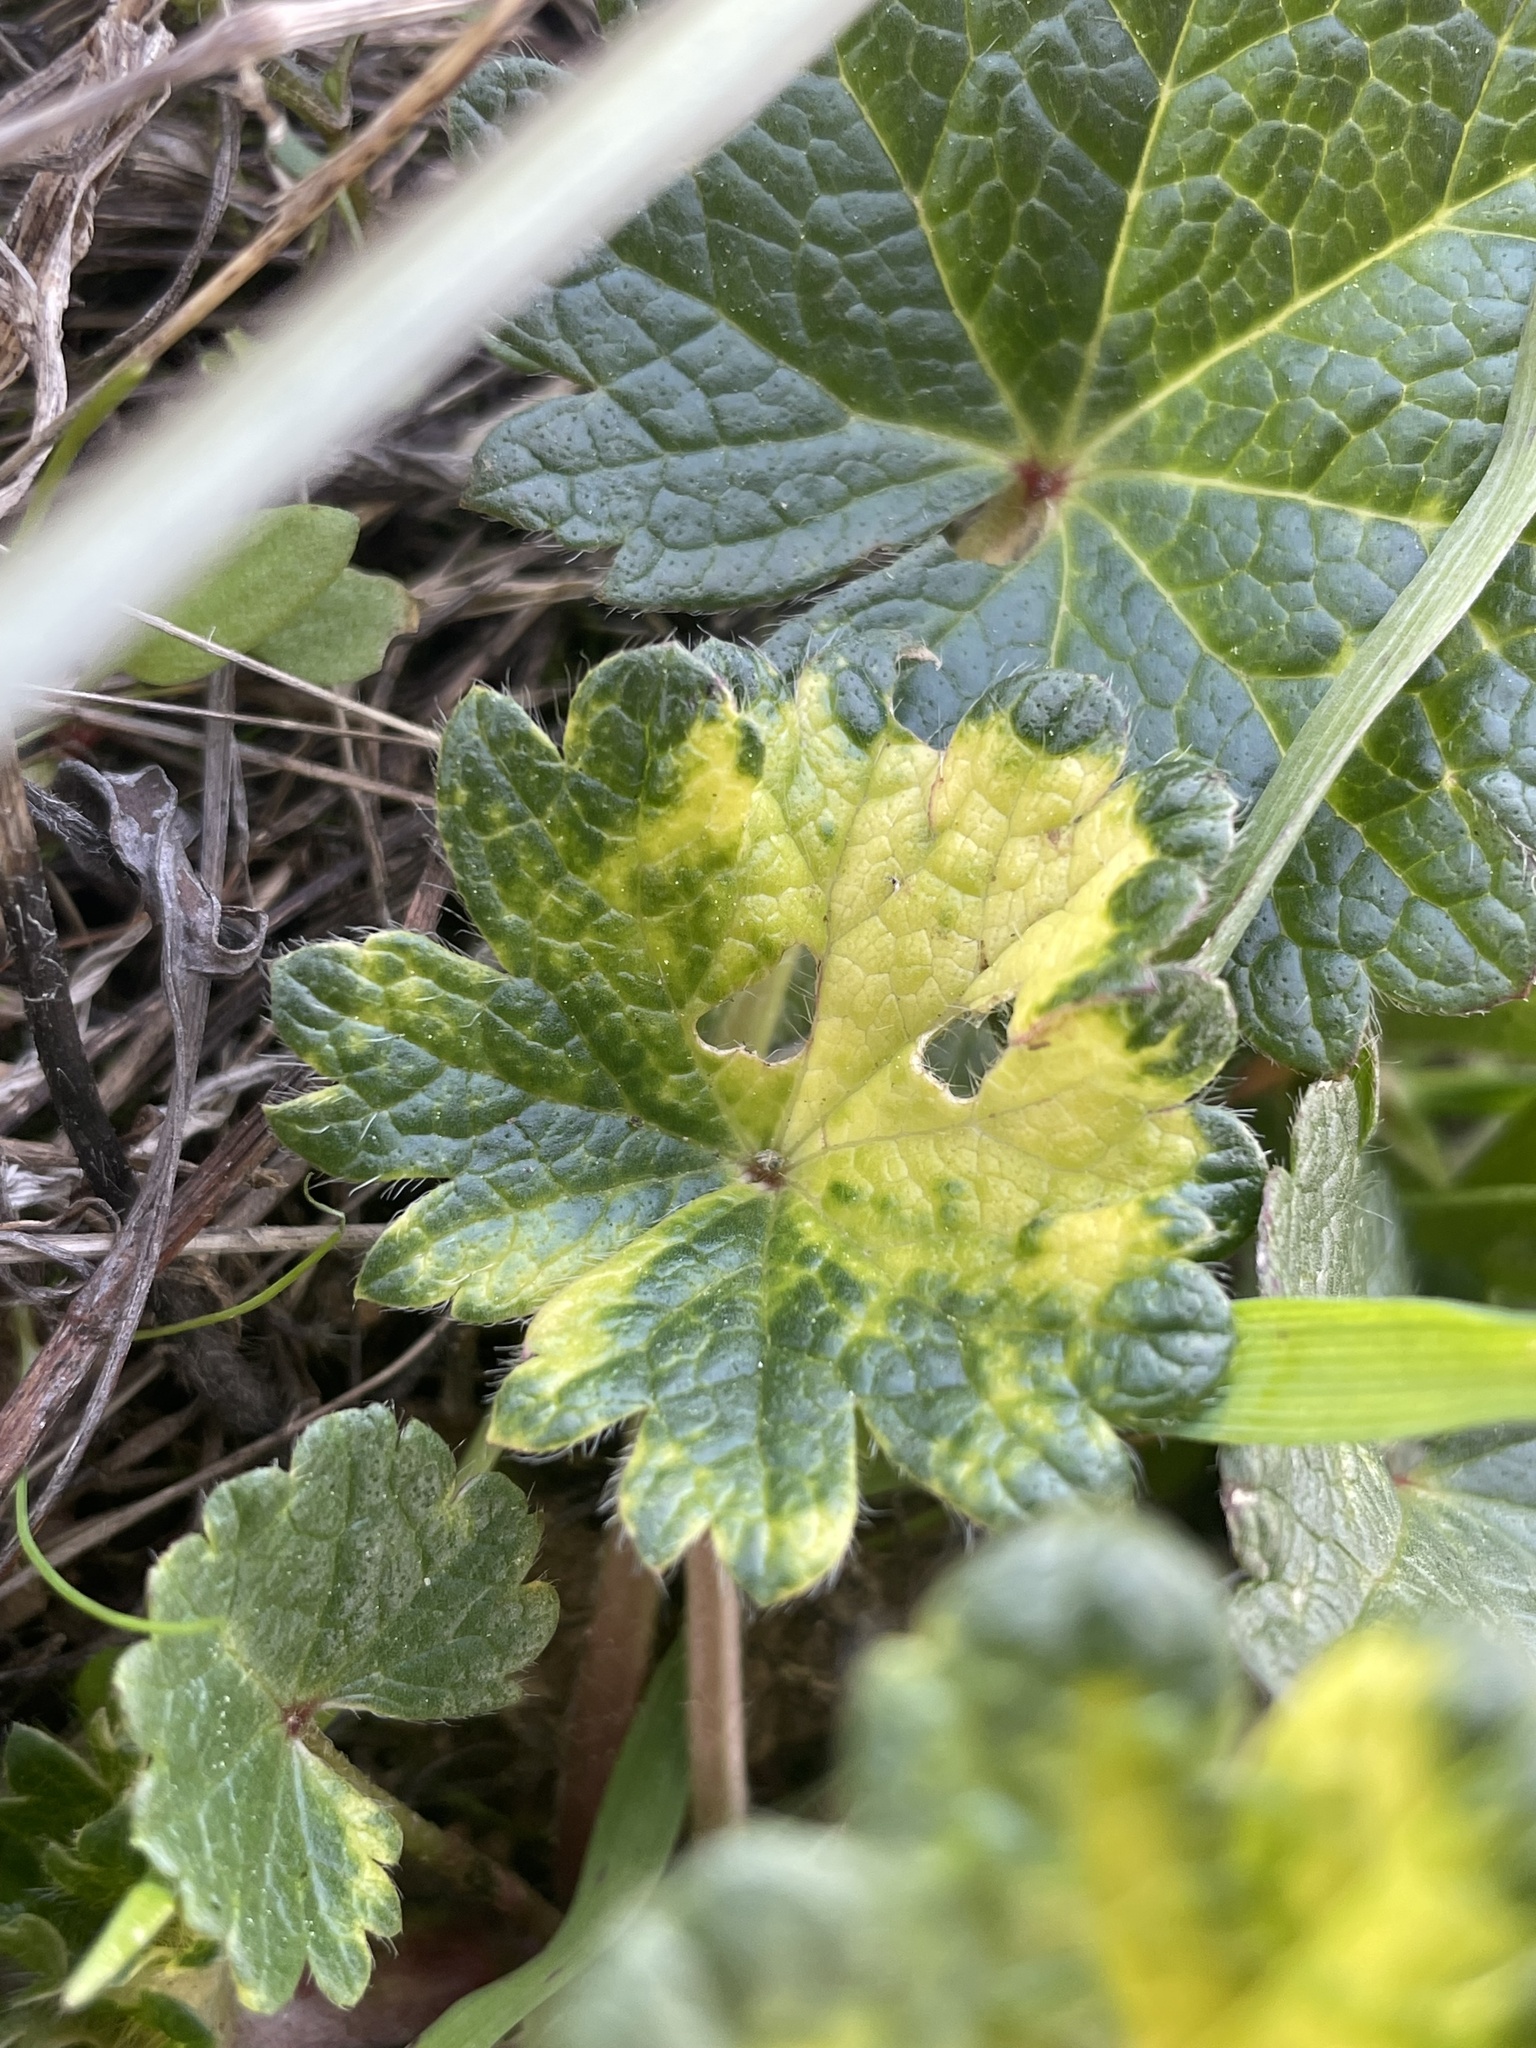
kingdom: Plantae
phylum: Tracheophyta
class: Magnoliopsida
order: Malvales
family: Malvaceae
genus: Sidalcea
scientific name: Sidalcea malviflora
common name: Greek mallow
